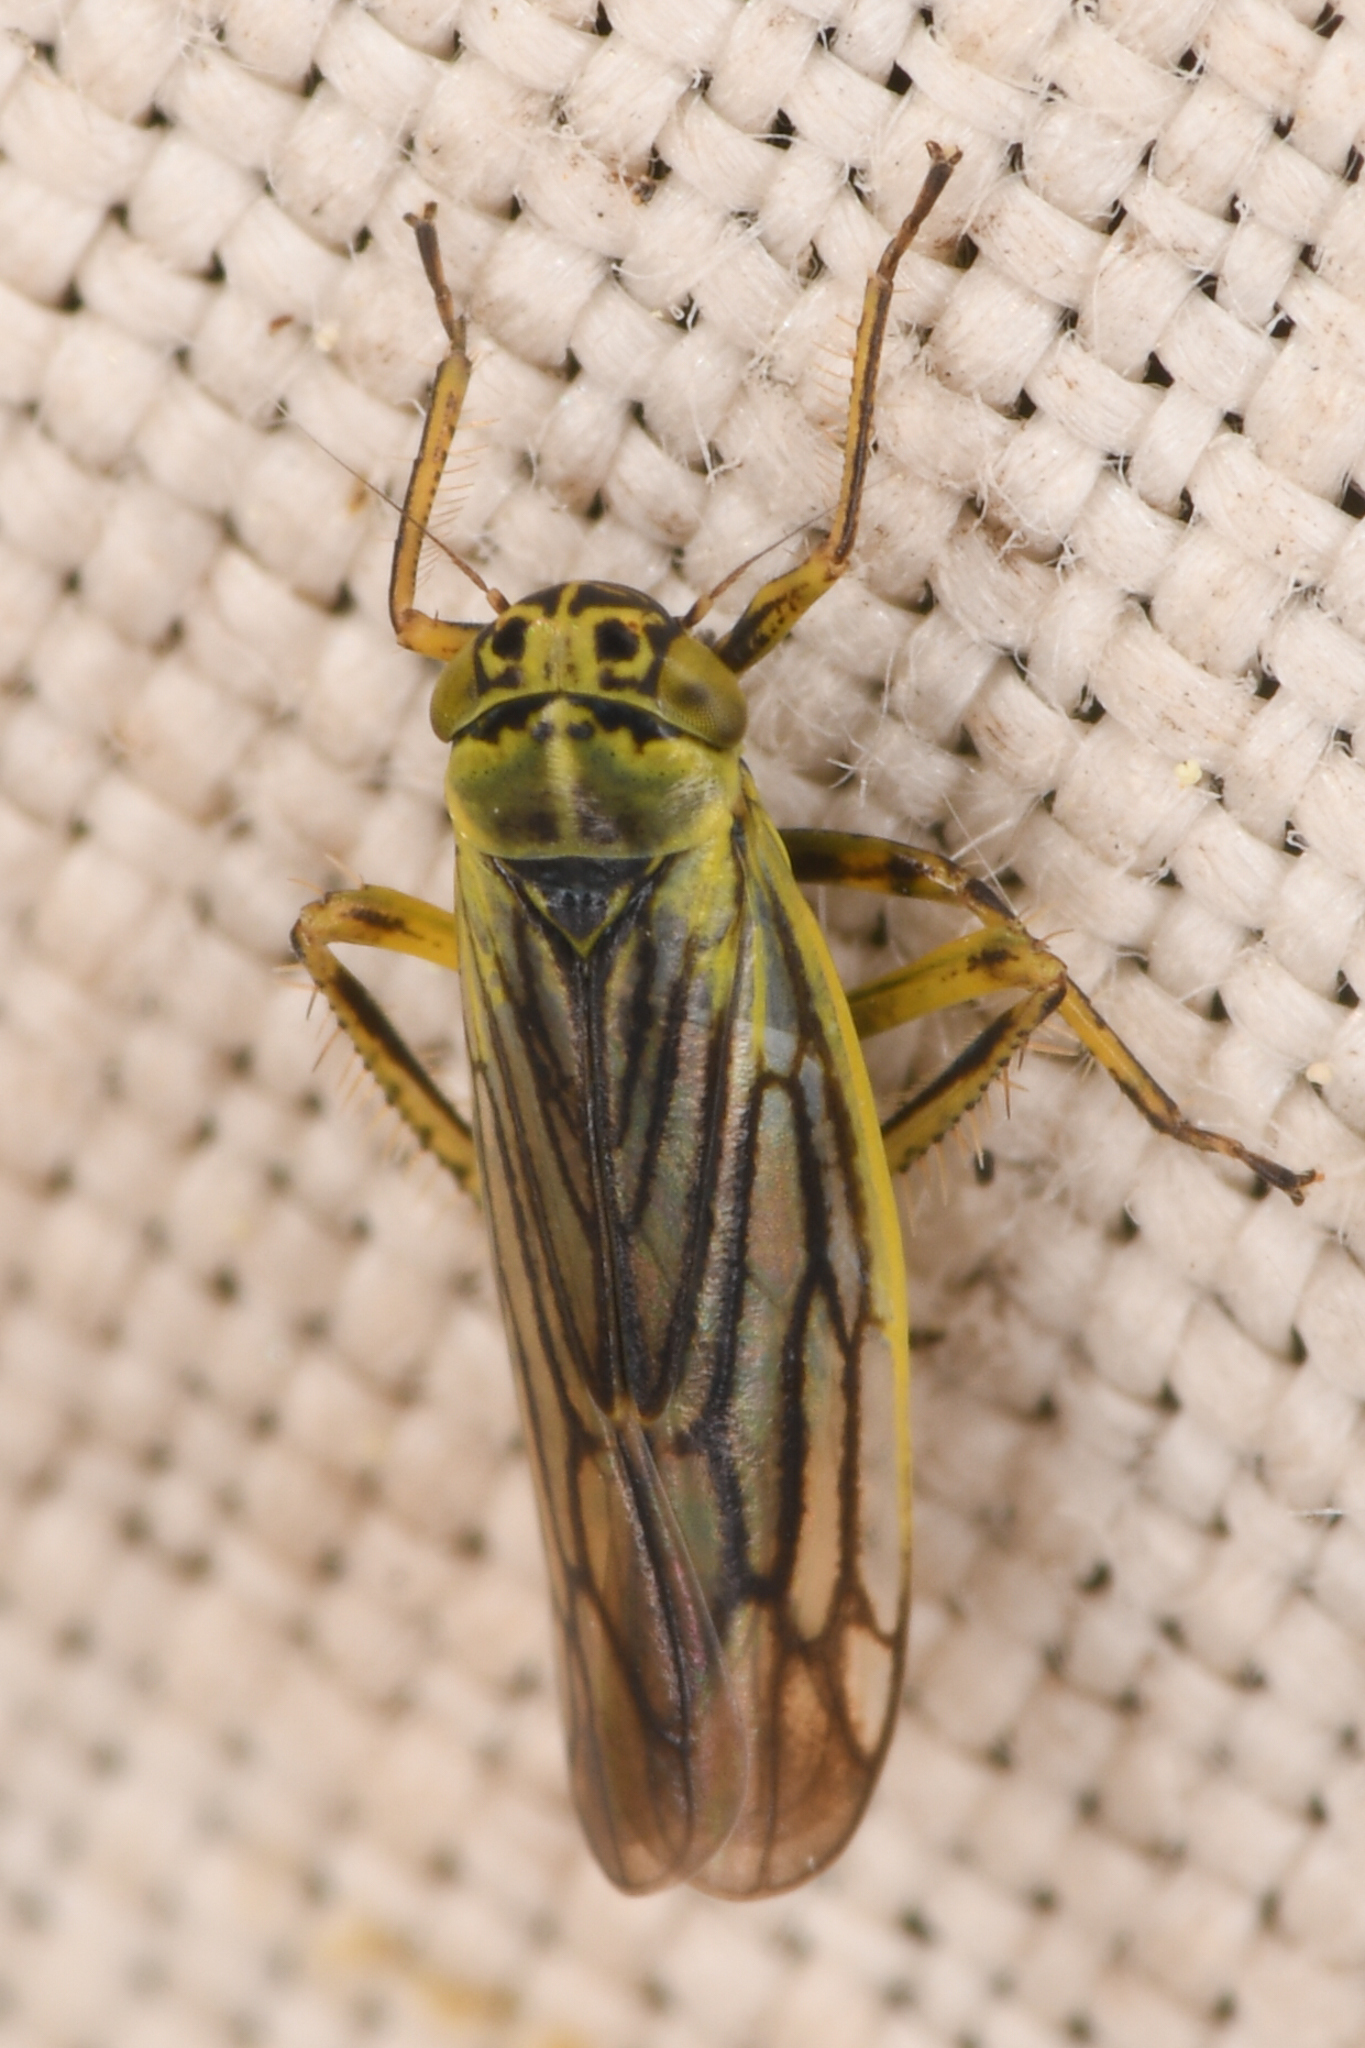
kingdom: Animalia
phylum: Arthropoda
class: Insecta
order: Hemiptera
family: Cicadellidae
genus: Sonronius
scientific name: Sonronius maculipes
